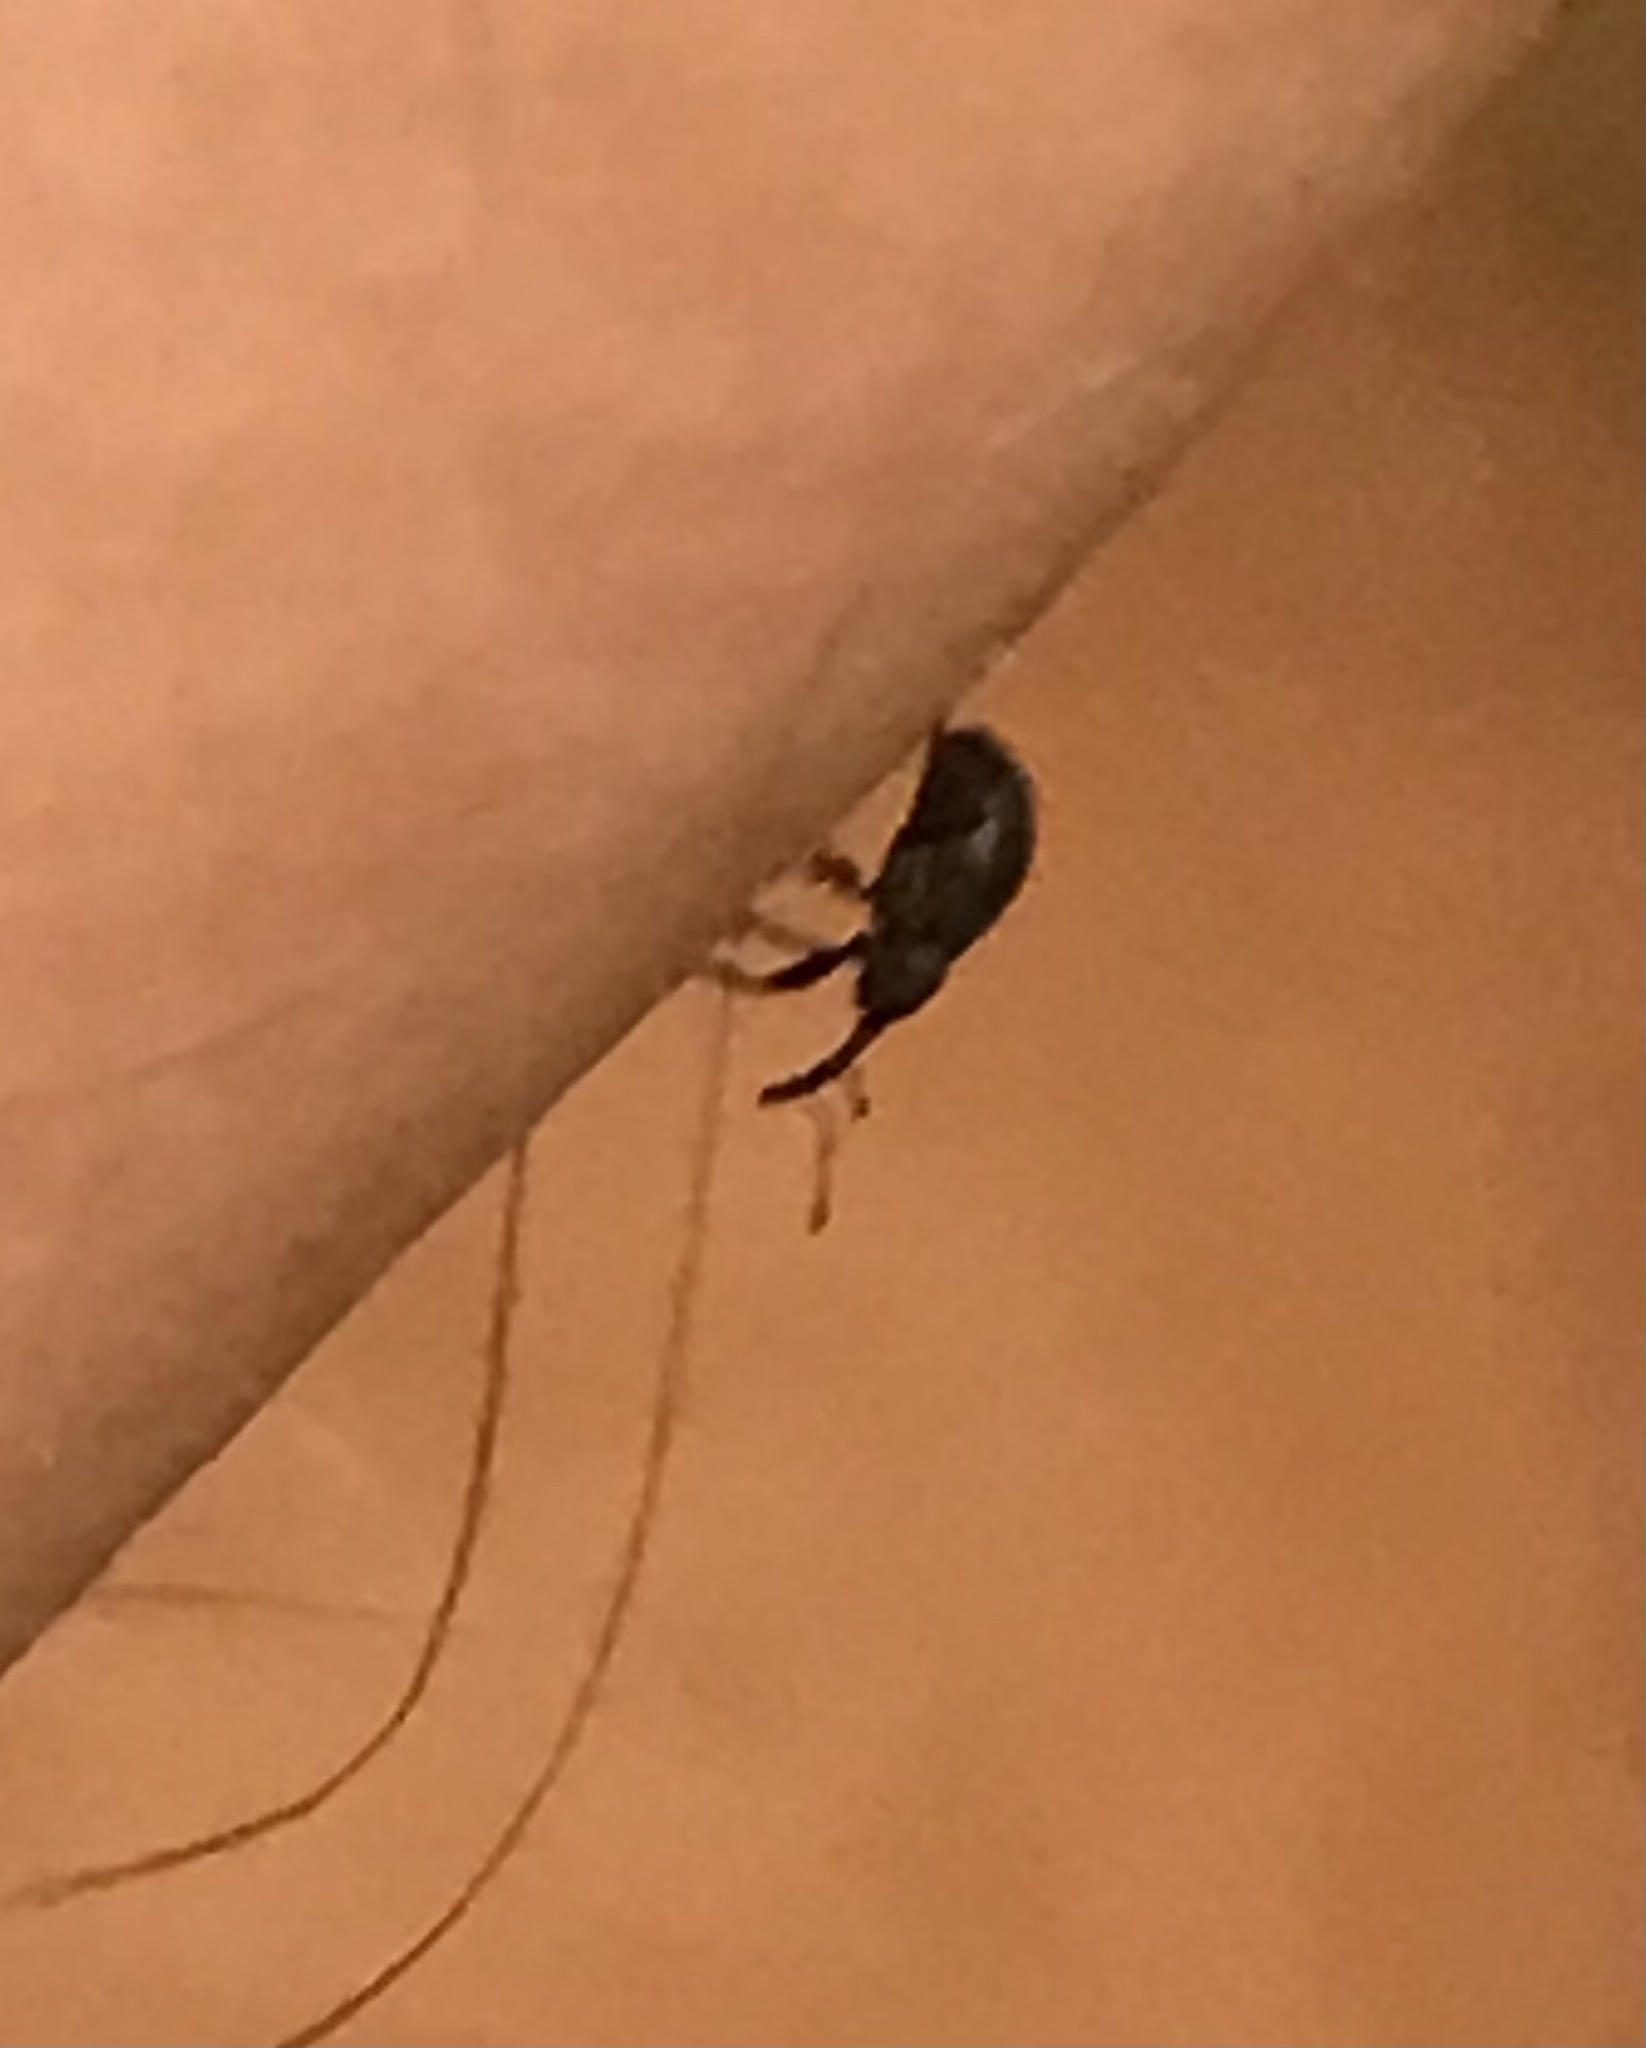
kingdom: Animalia
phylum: Arthropoda
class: Insecta
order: Coleoptera
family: Curculionidae
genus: Anthonomus
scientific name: Anthonomus rubi
